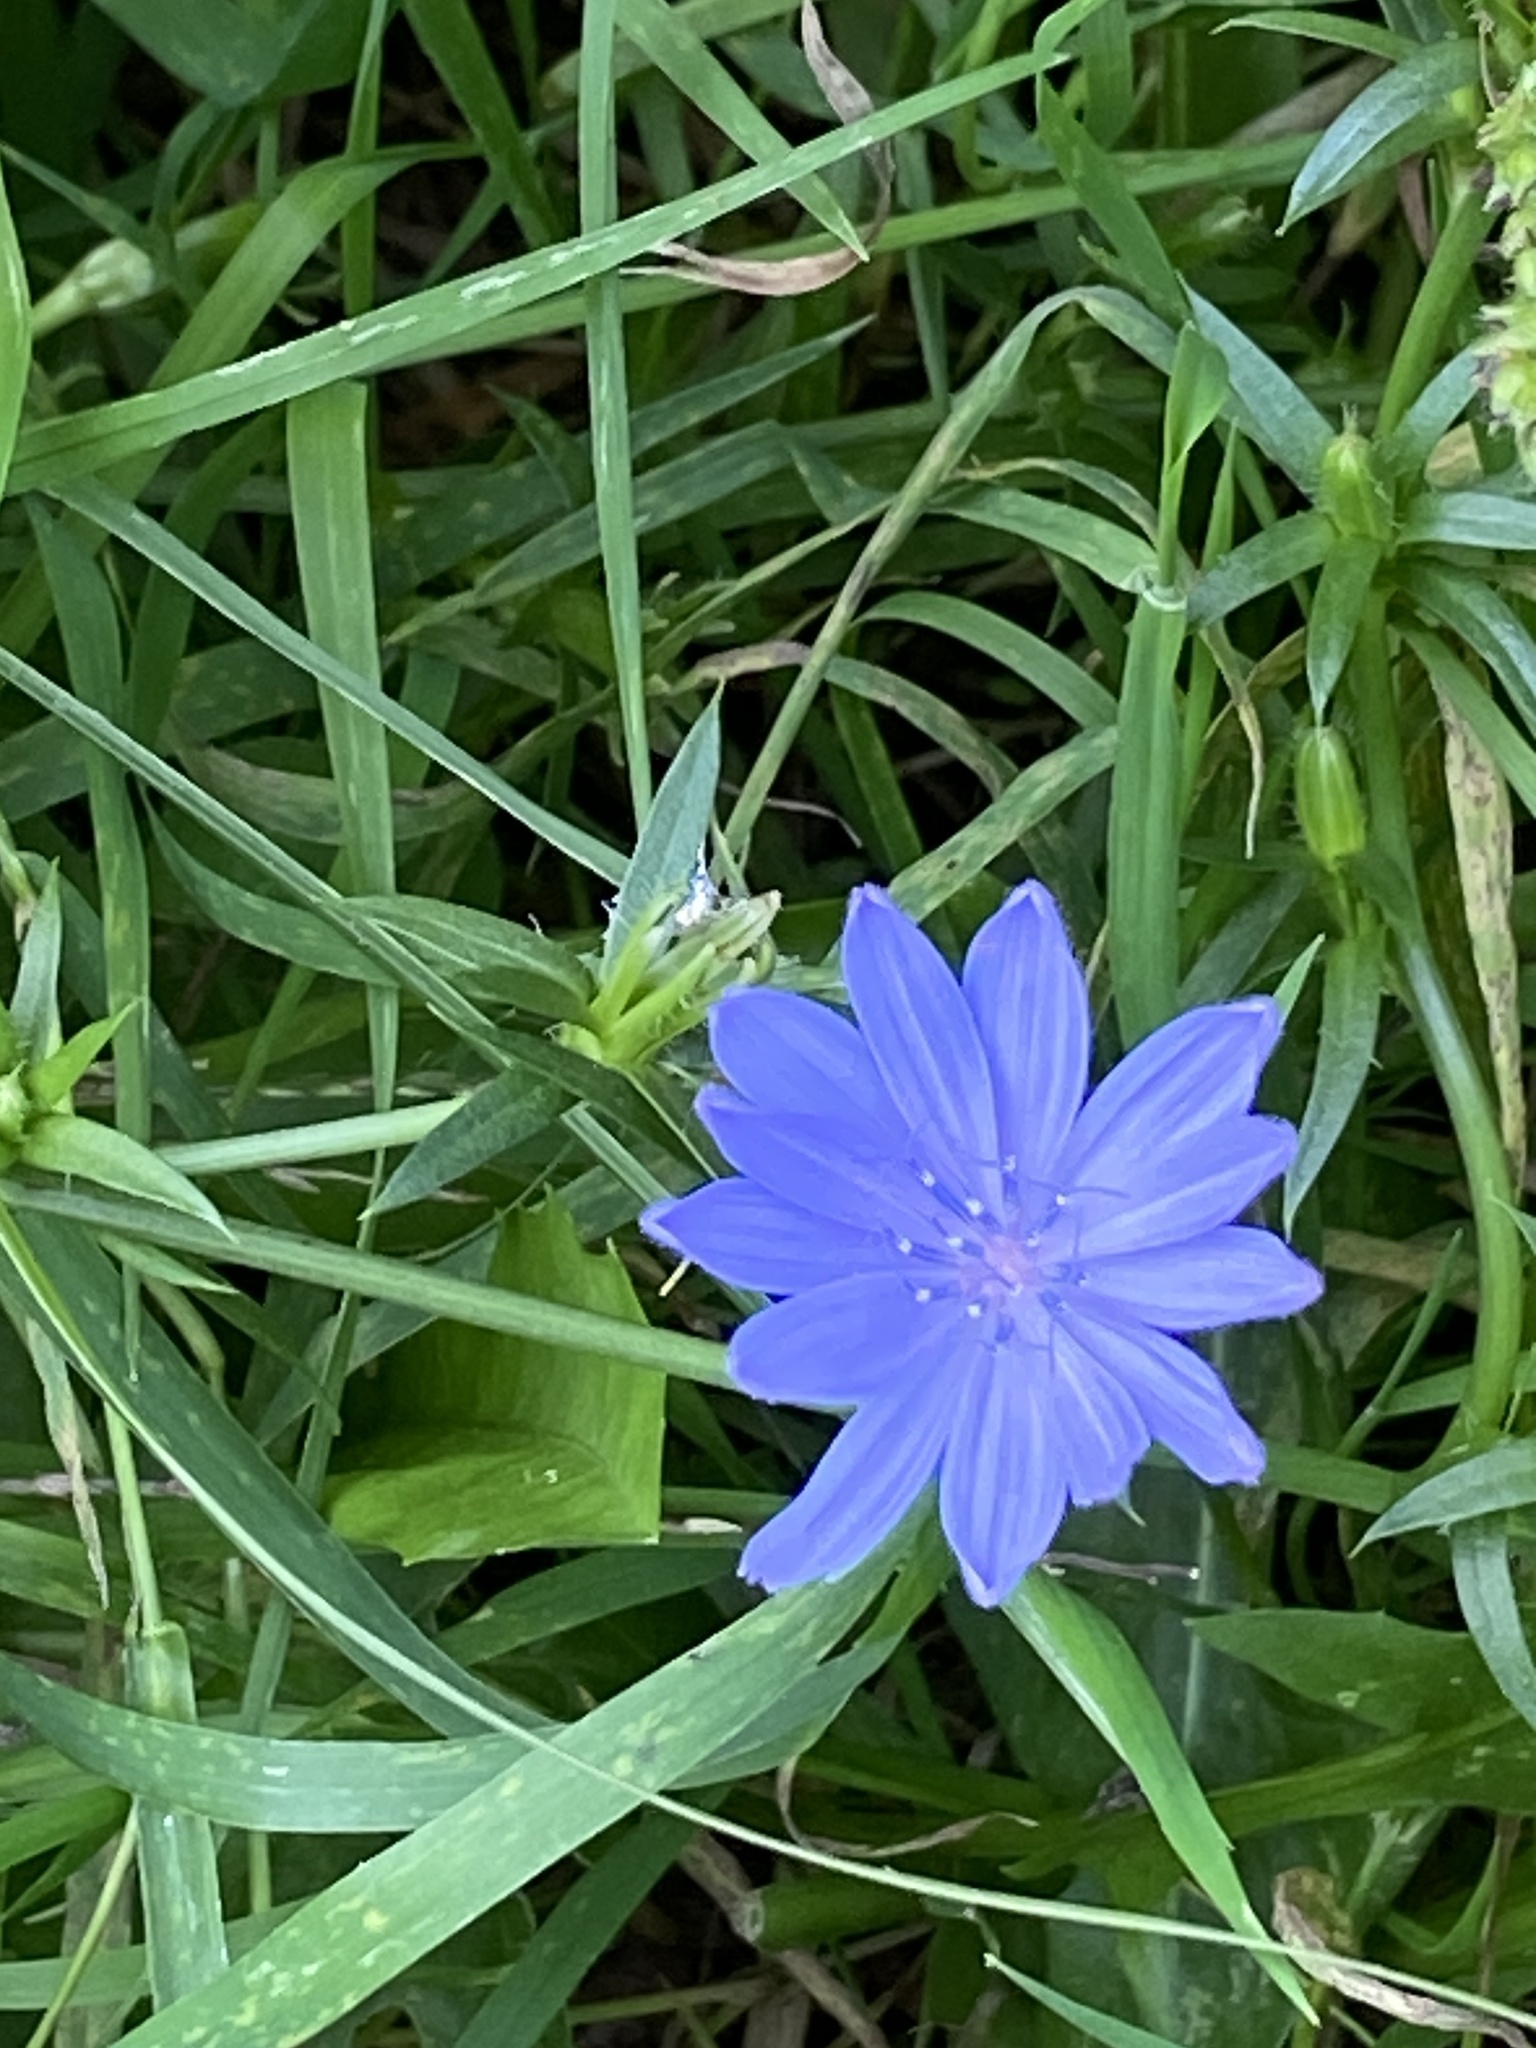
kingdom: Plantae
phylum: Tracheophyta
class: Magnoliopsida
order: Asterales
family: Asteraceae
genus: Cichorium
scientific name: Cichorium intybus
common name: Chicory
